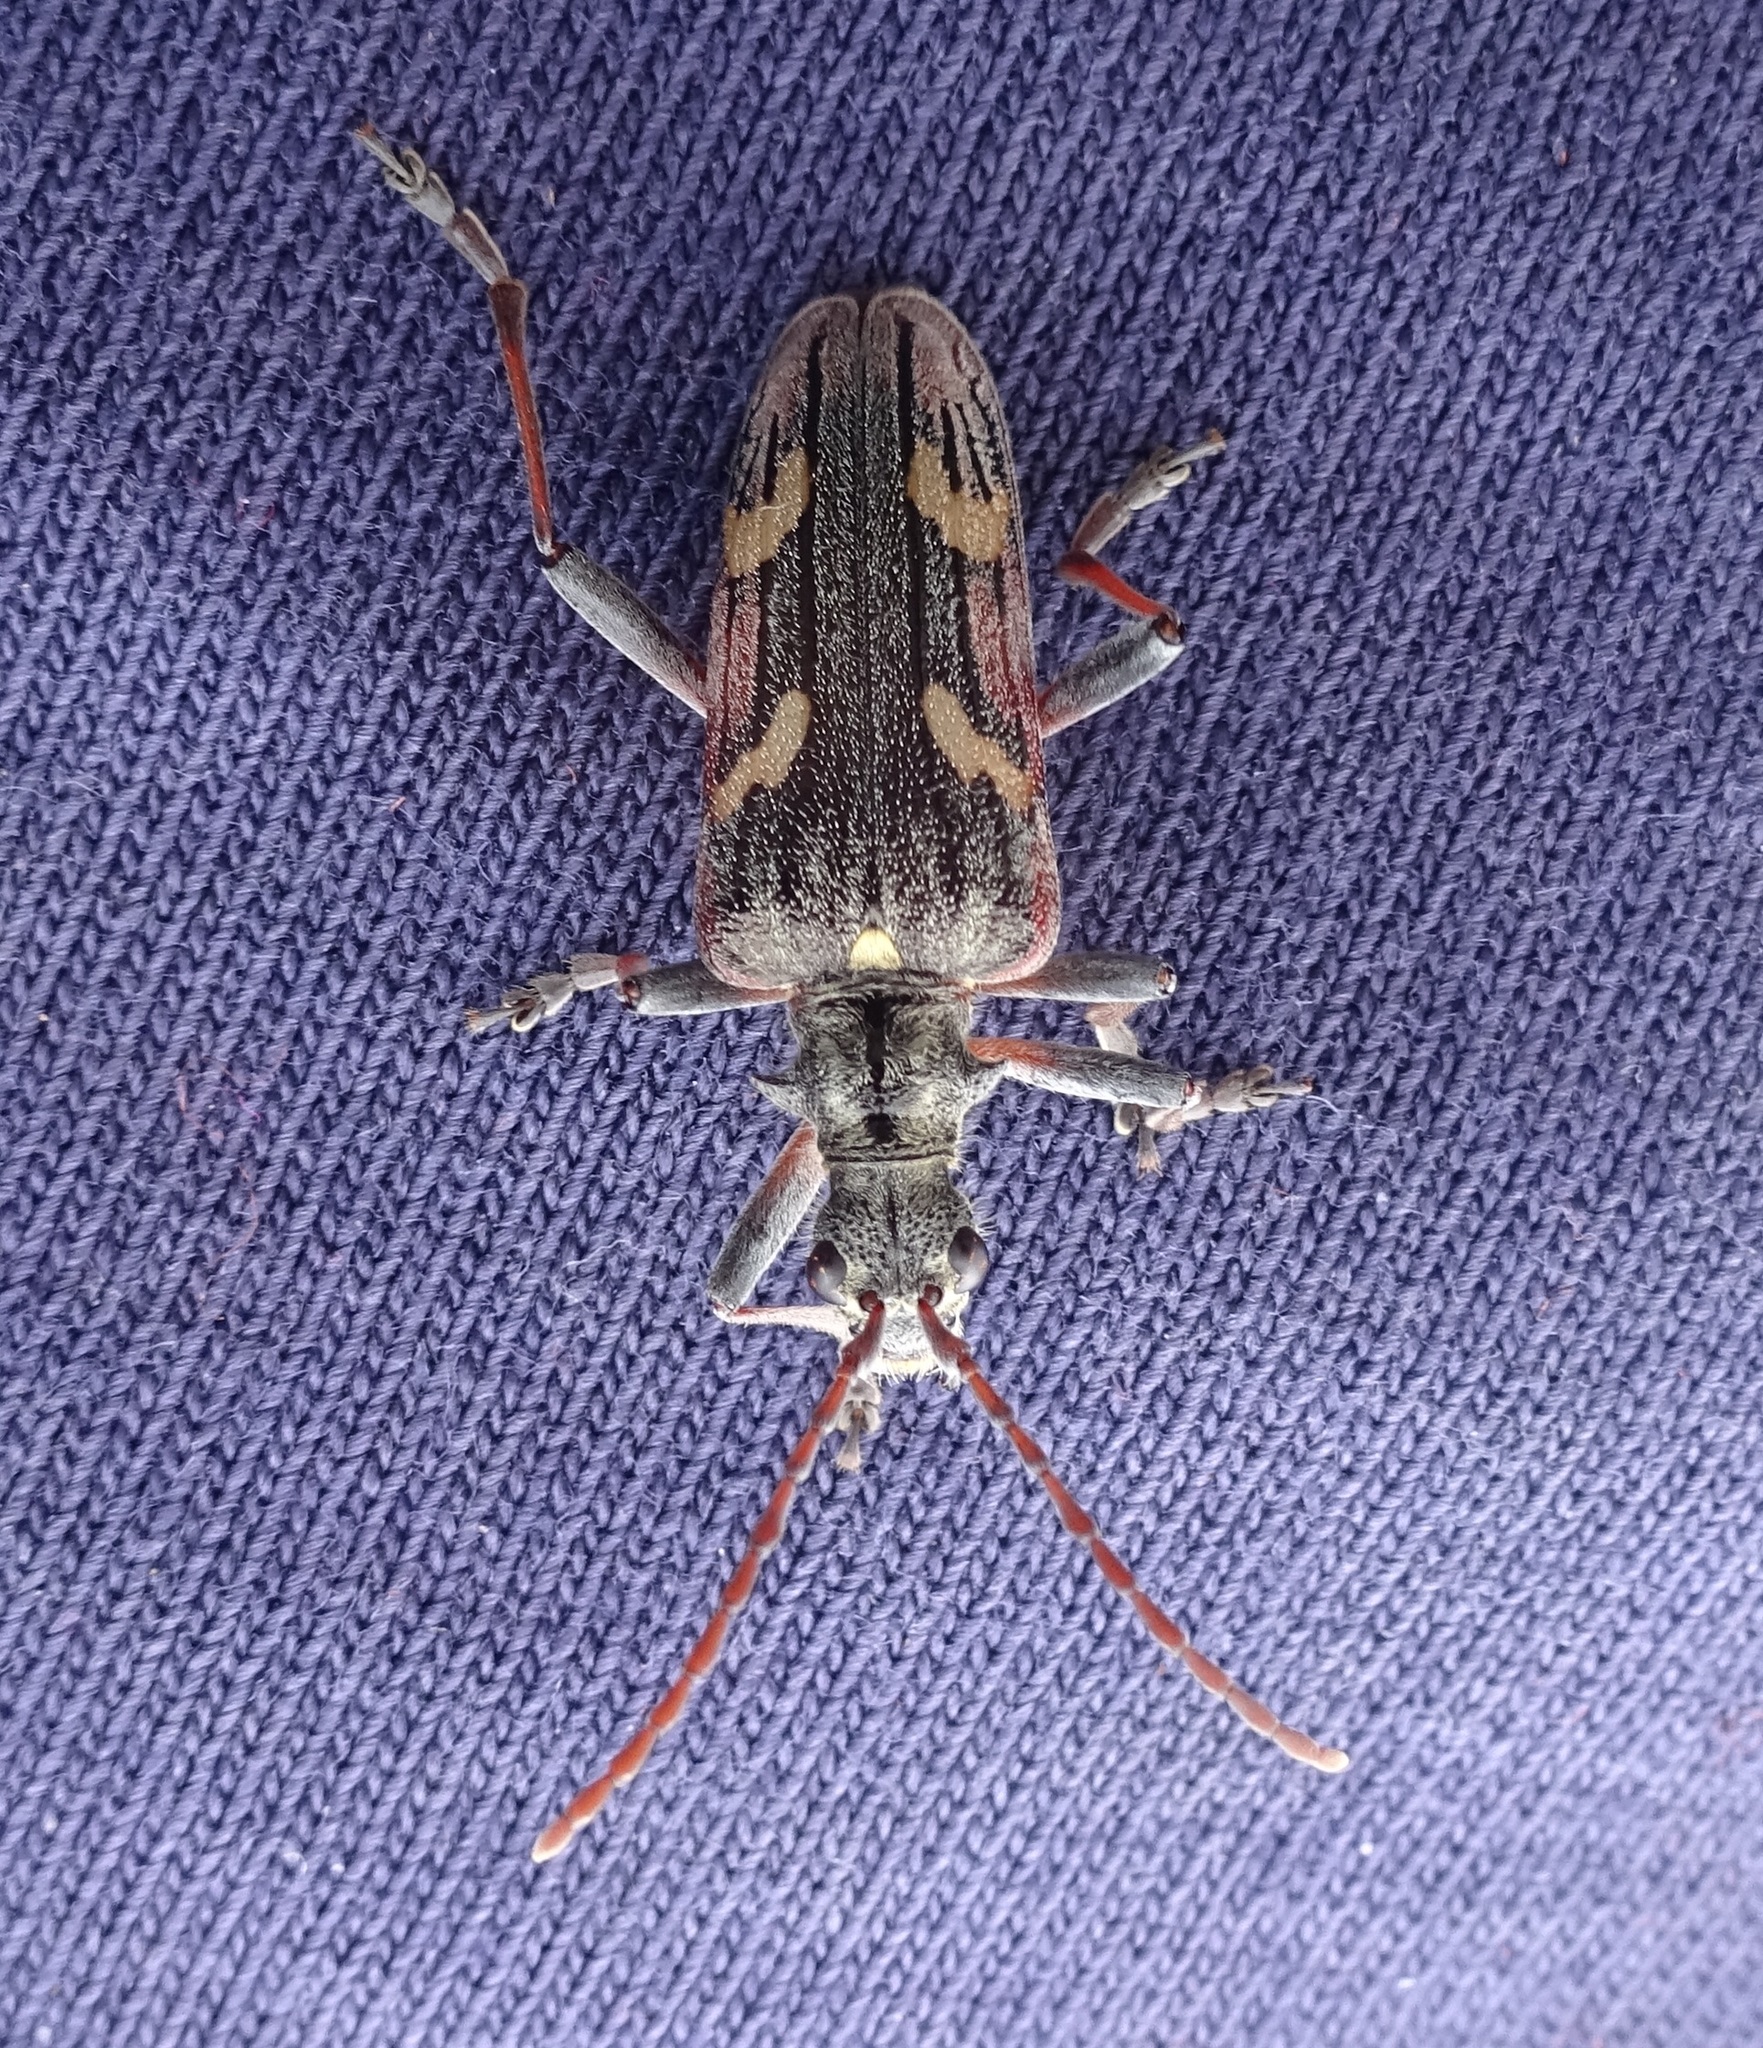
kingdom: Animalia
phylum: Arthropoda
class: Insecta
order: Coleoptera
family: Cerambycidae
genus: Rhagium
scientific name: Rhagium bifasciatum
